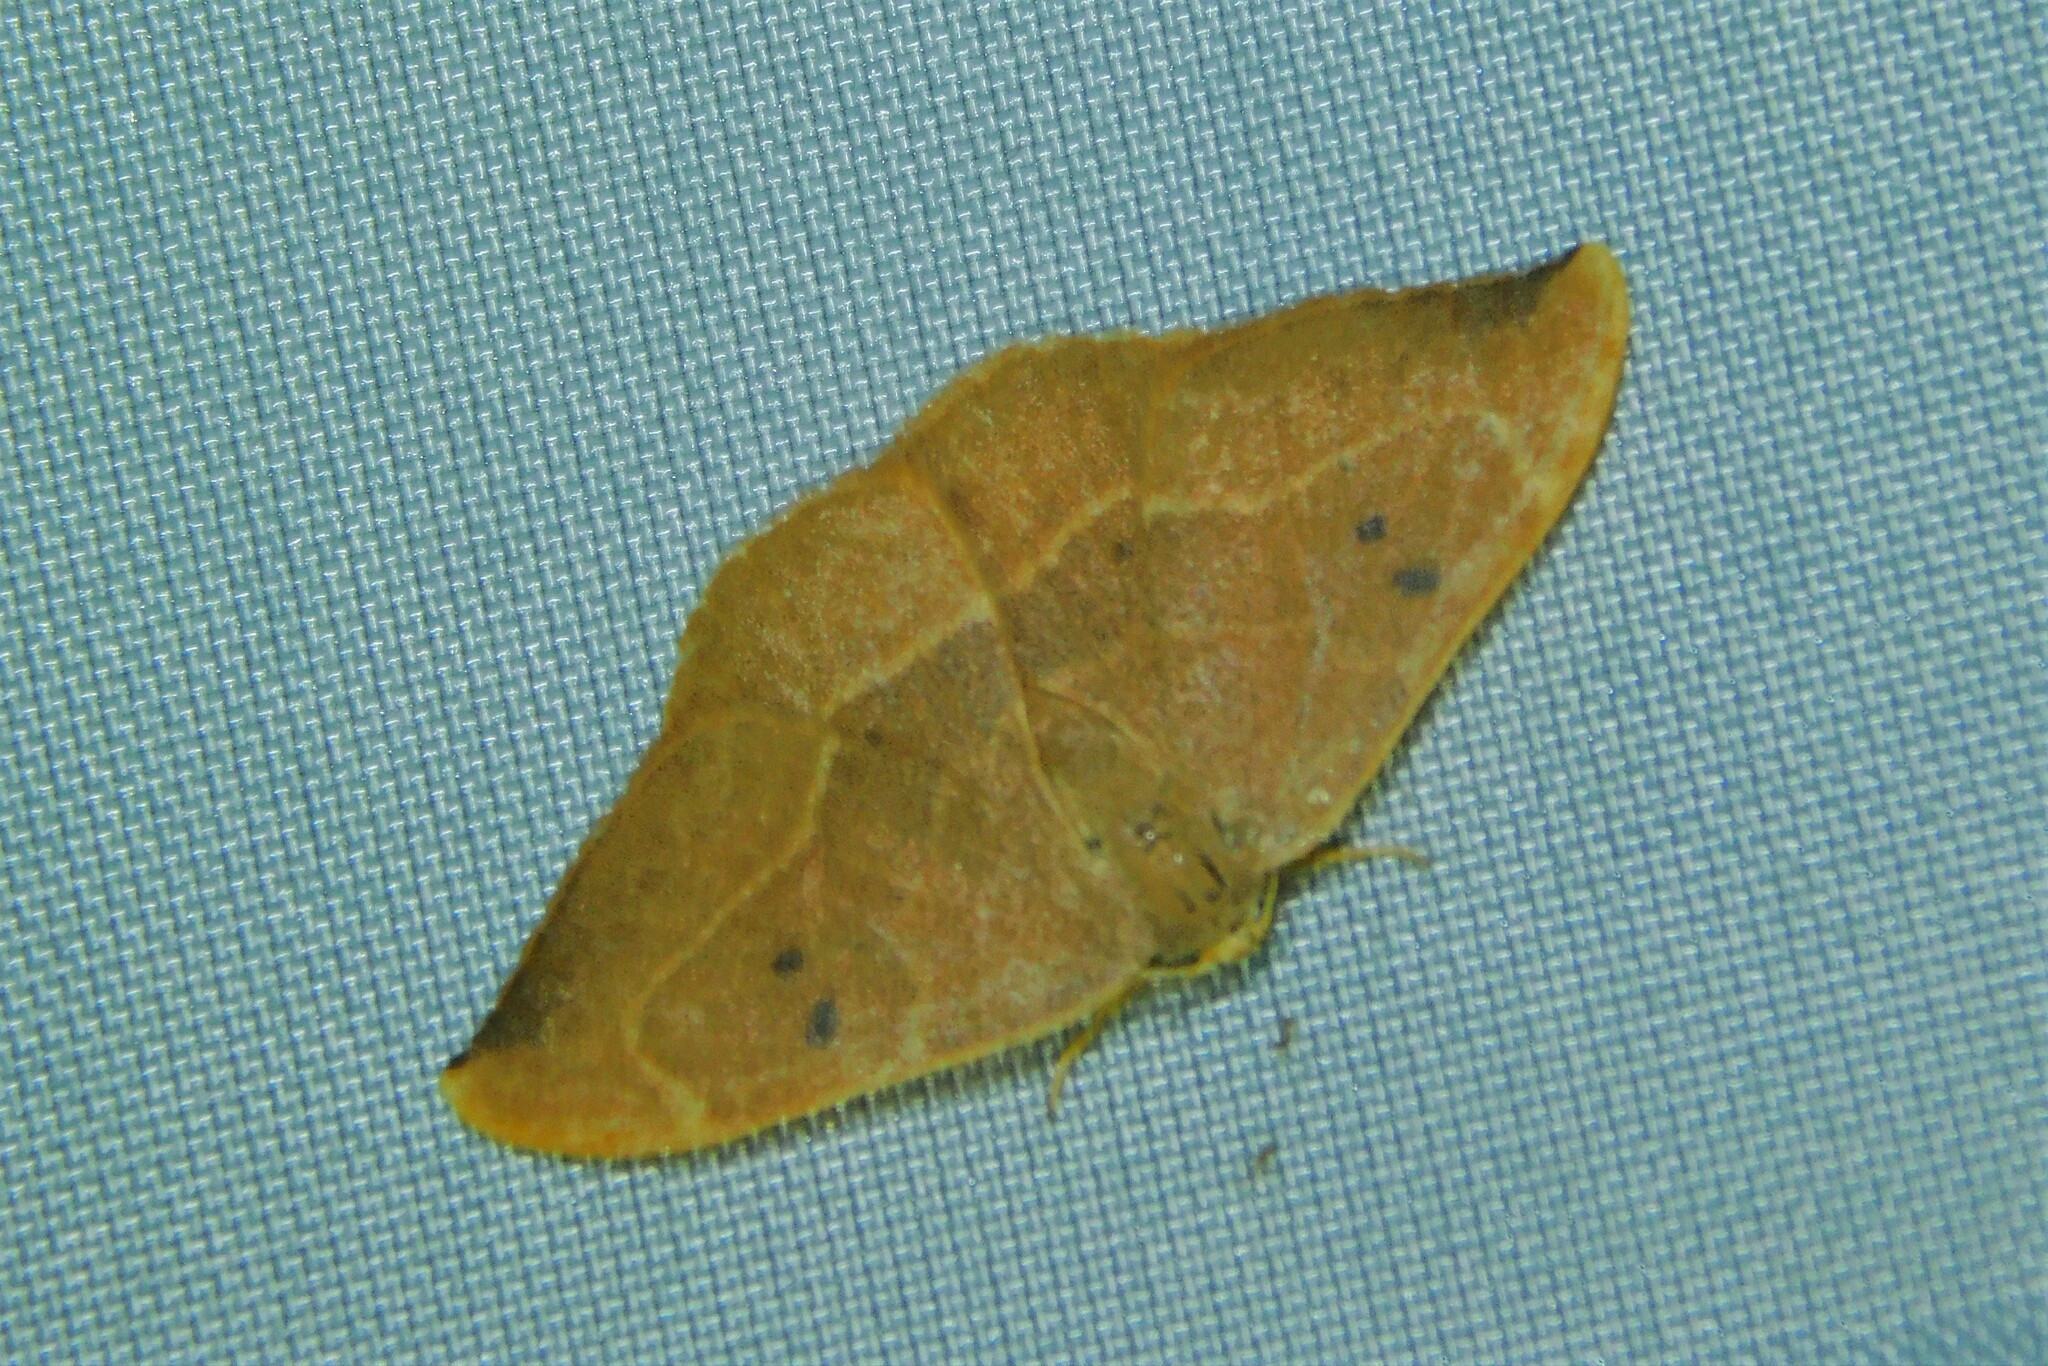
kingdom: Animalia
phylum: Arthropoda
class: Insecta
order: Lepidoptera
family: Drepanidae
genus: Watsonalla
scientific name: Watsonalla binaria
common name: Oak hook-tip
